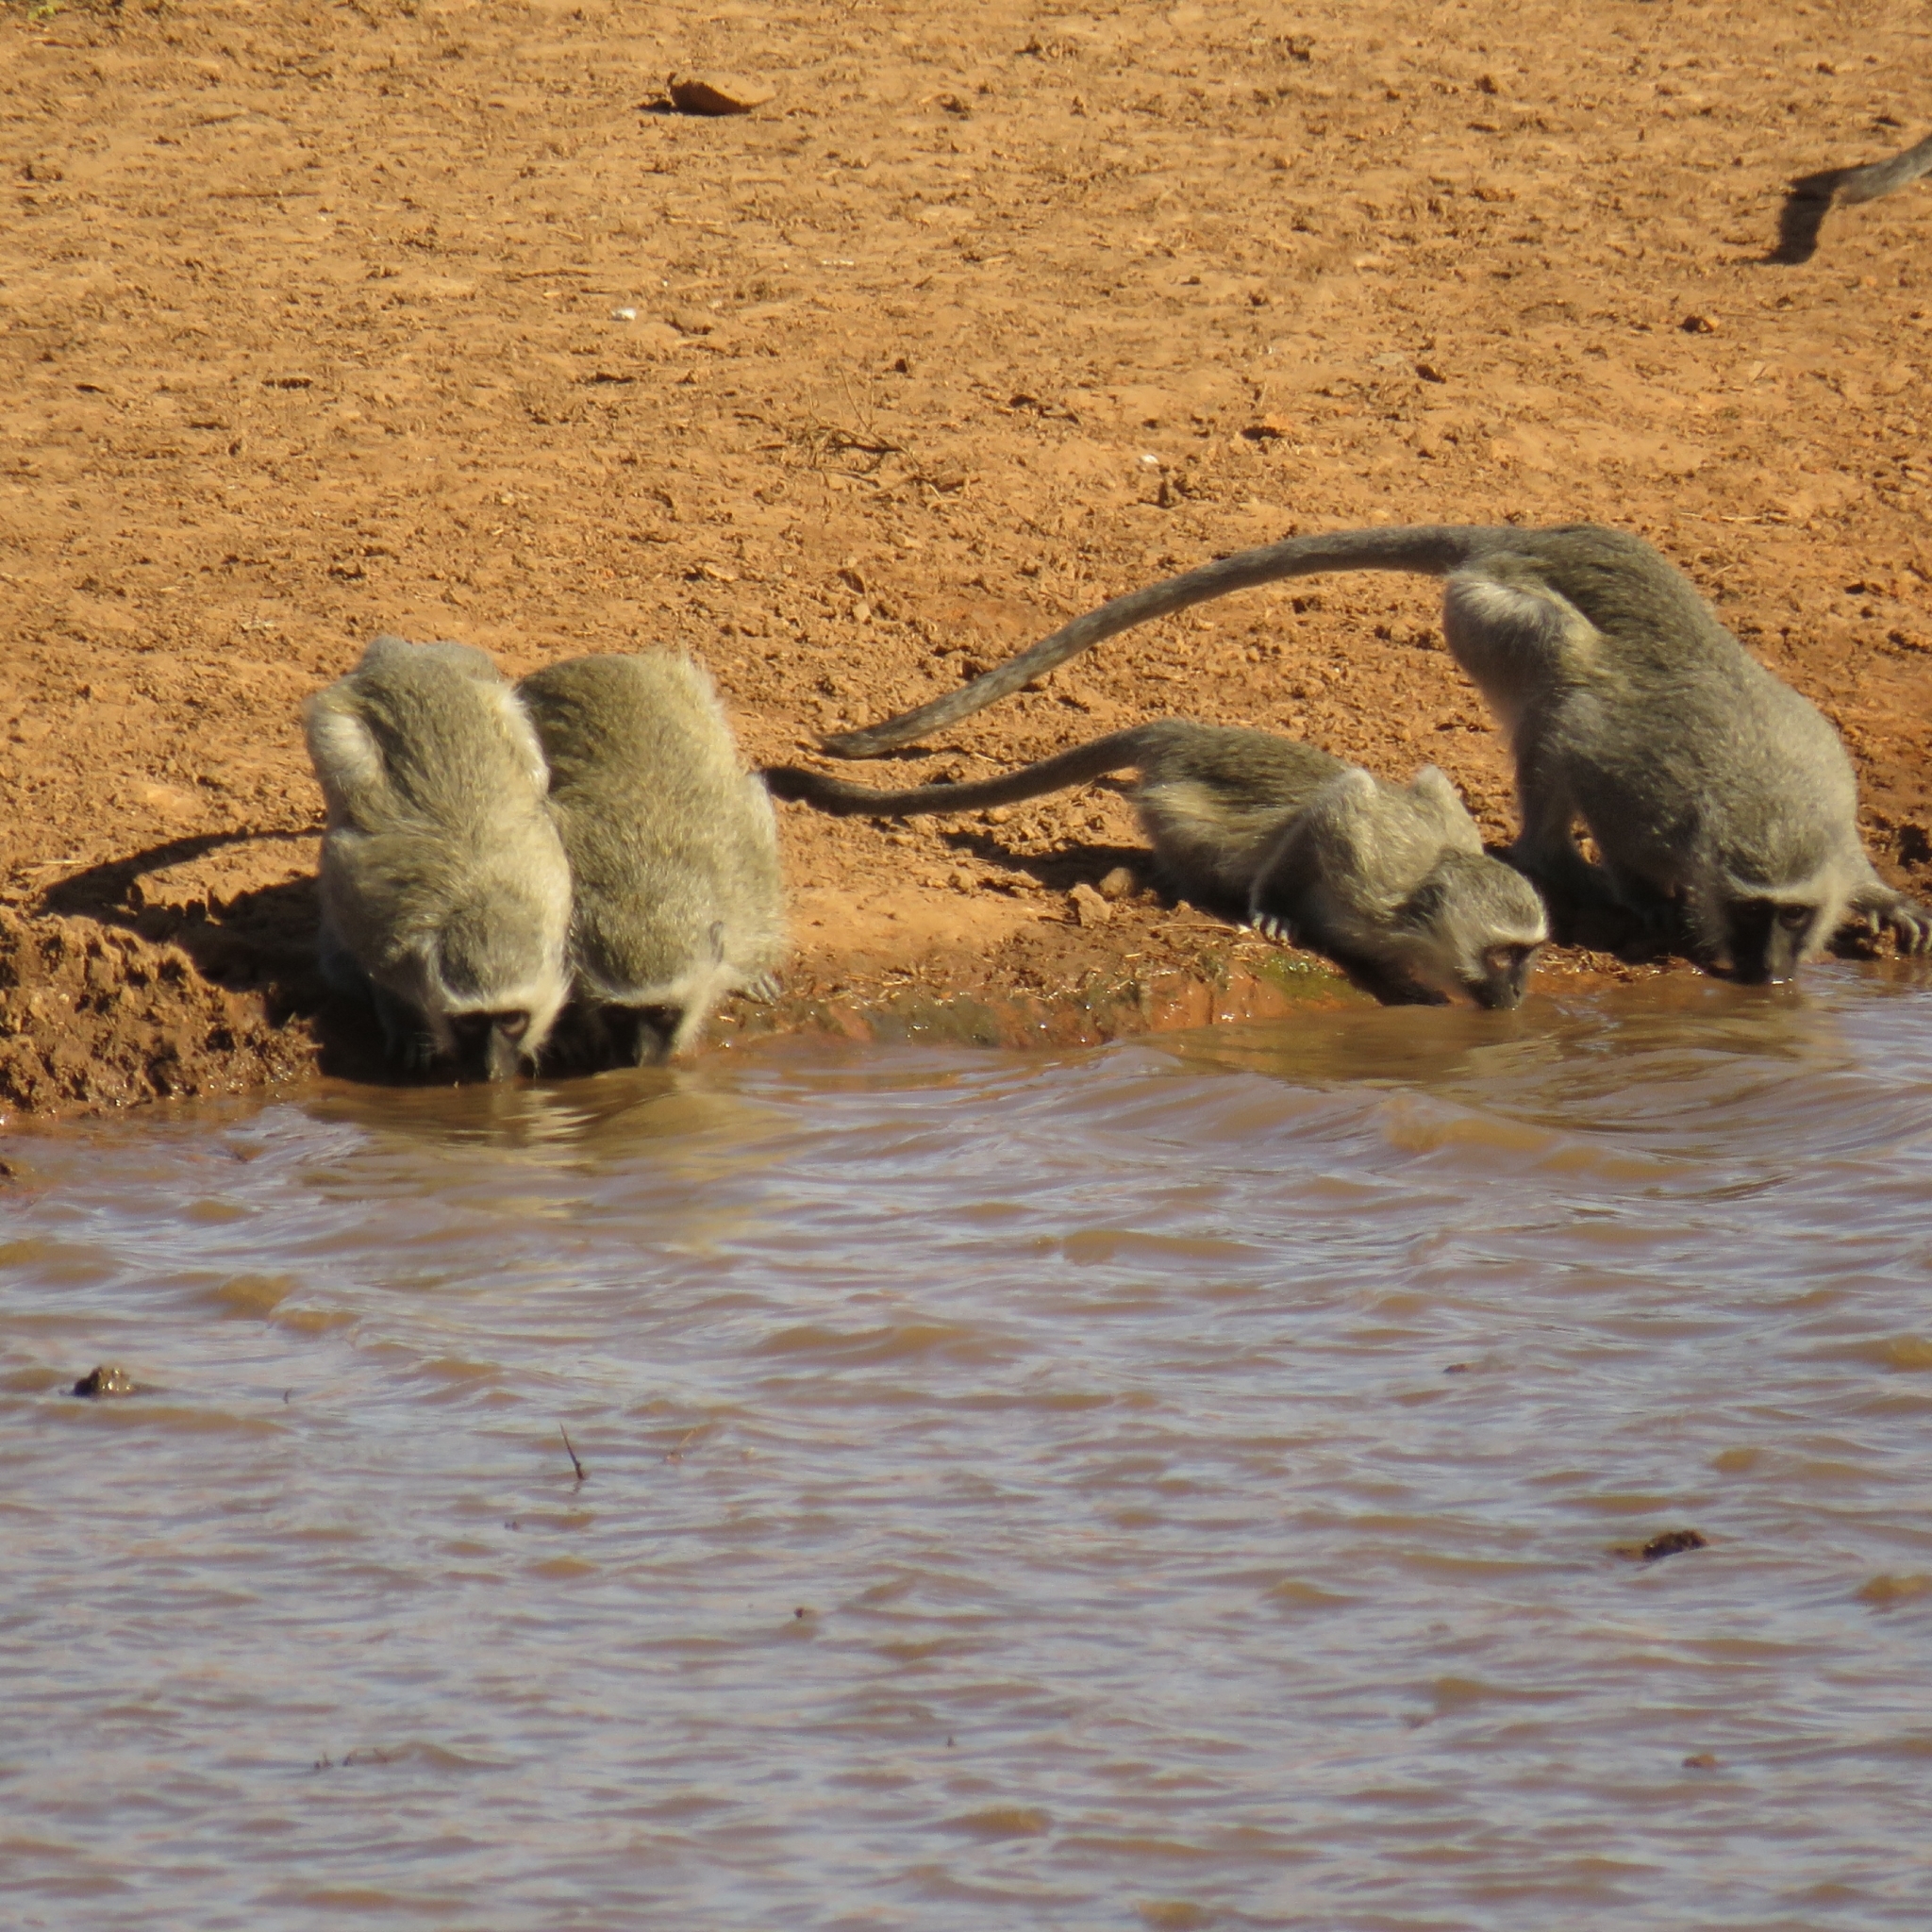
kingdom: Animalia
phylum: Chordata
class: Mammalia
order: Primates
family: Cercopithecidae
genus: Chlorocebus
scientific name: Chlorocebus pygerythrus
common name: Vervet monkey
